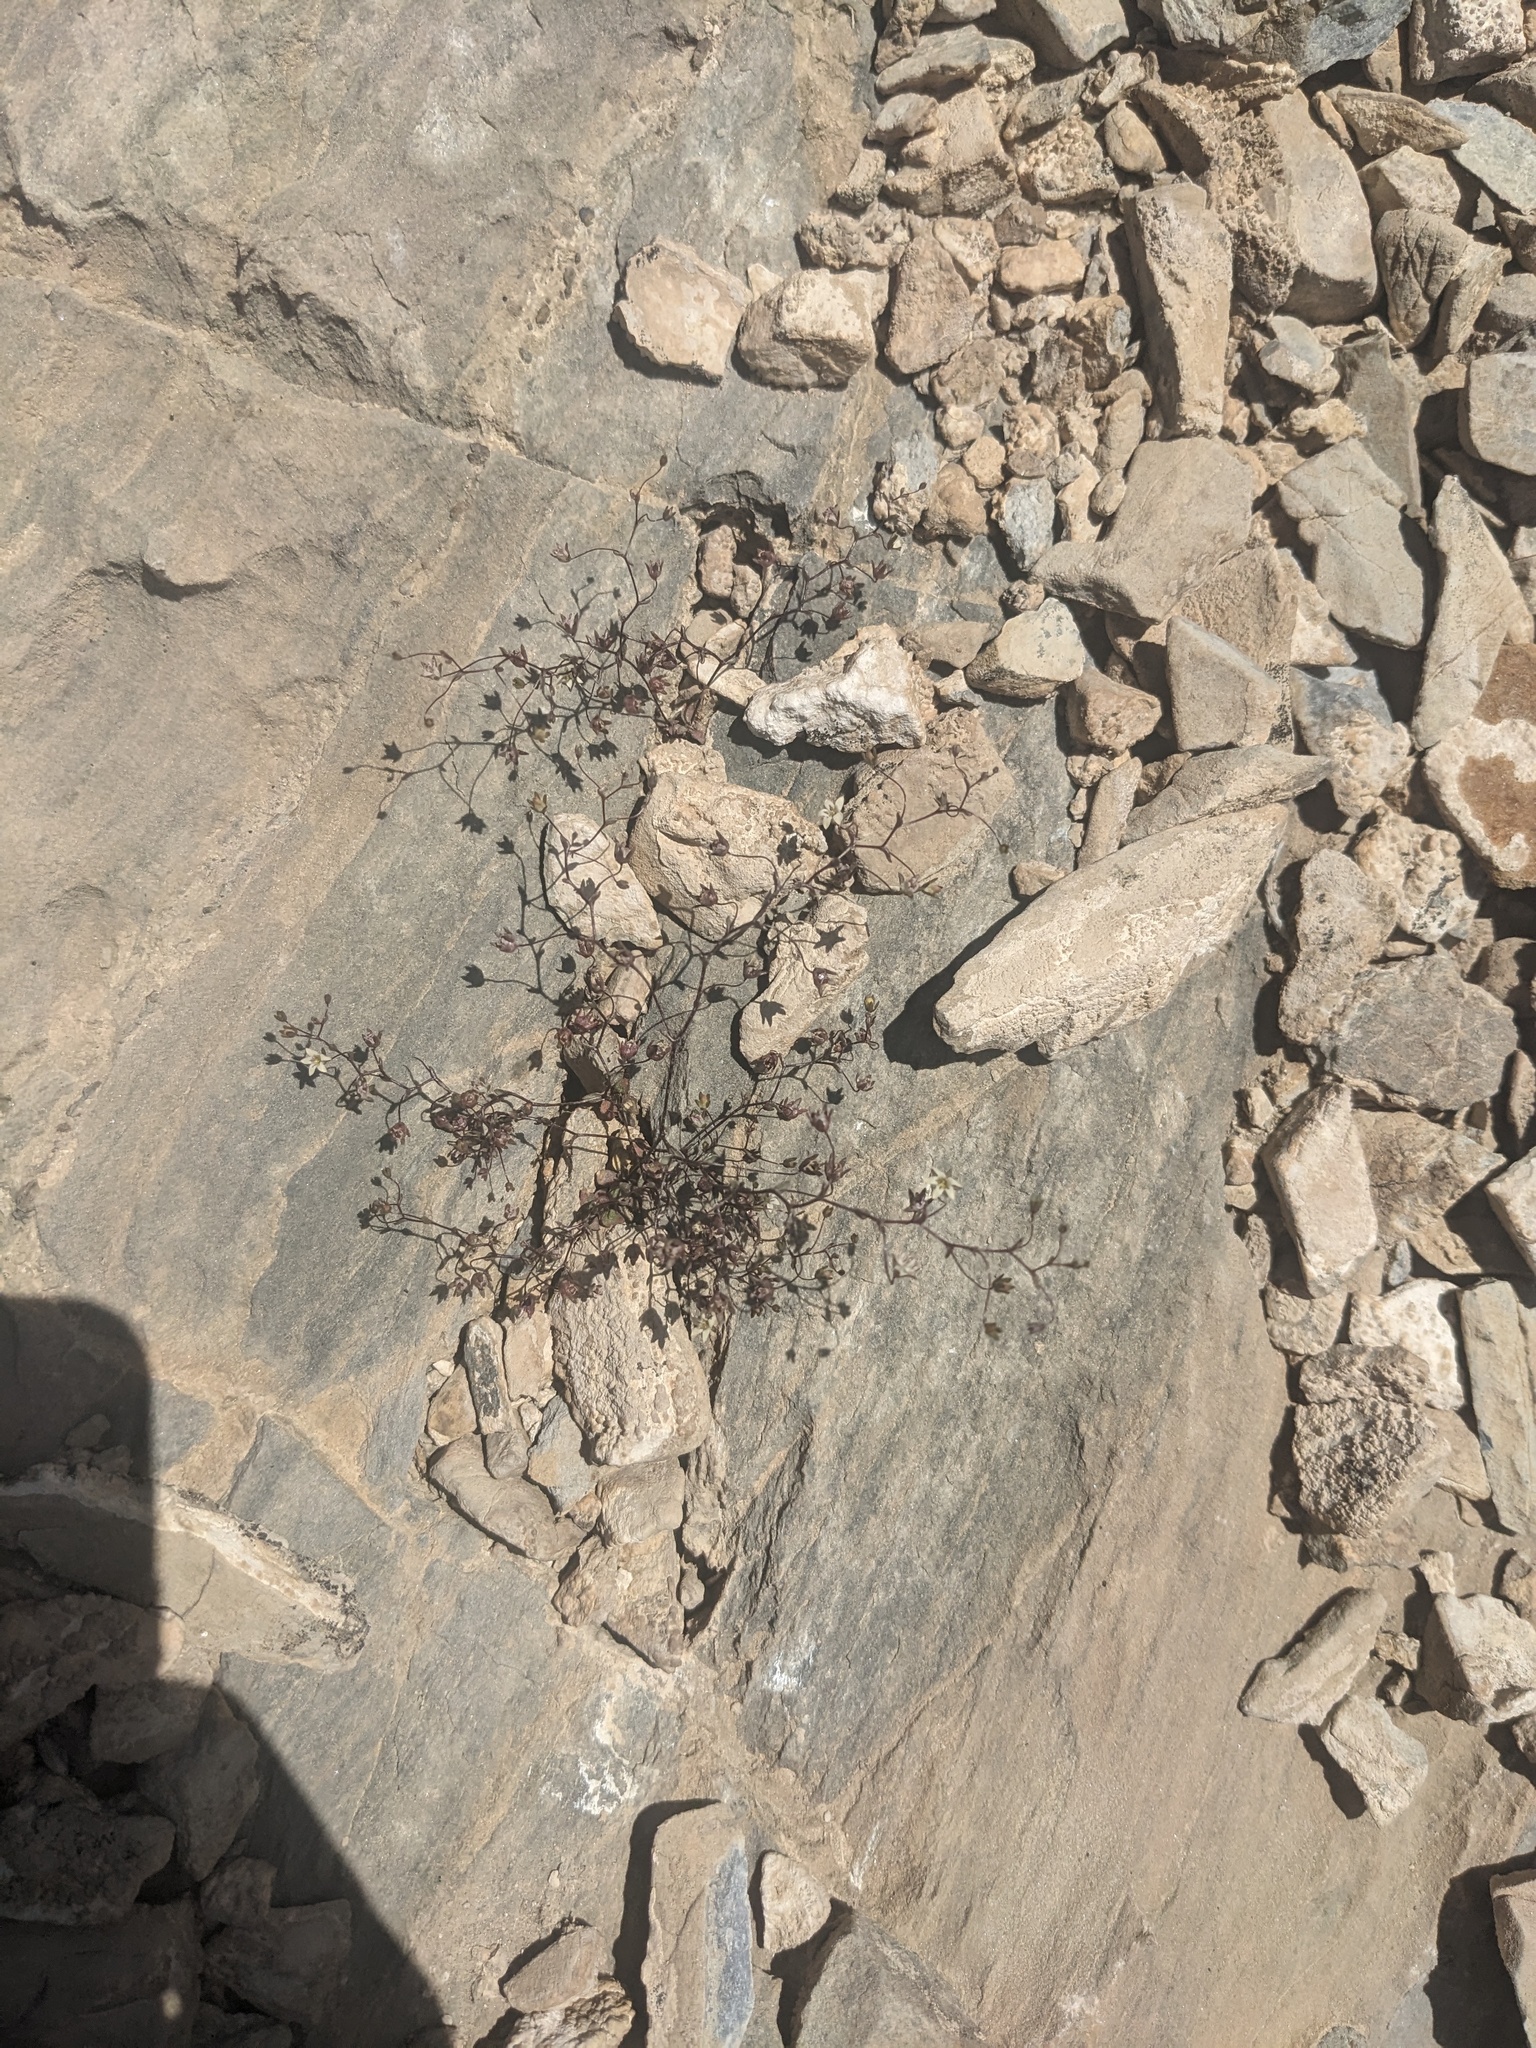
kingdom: Plantae
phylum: Tracheophyta
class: Magnoliopsida
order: Asterales
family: Campanulaceae
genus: Nemacladus
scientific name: Nemacladus inyoensis
